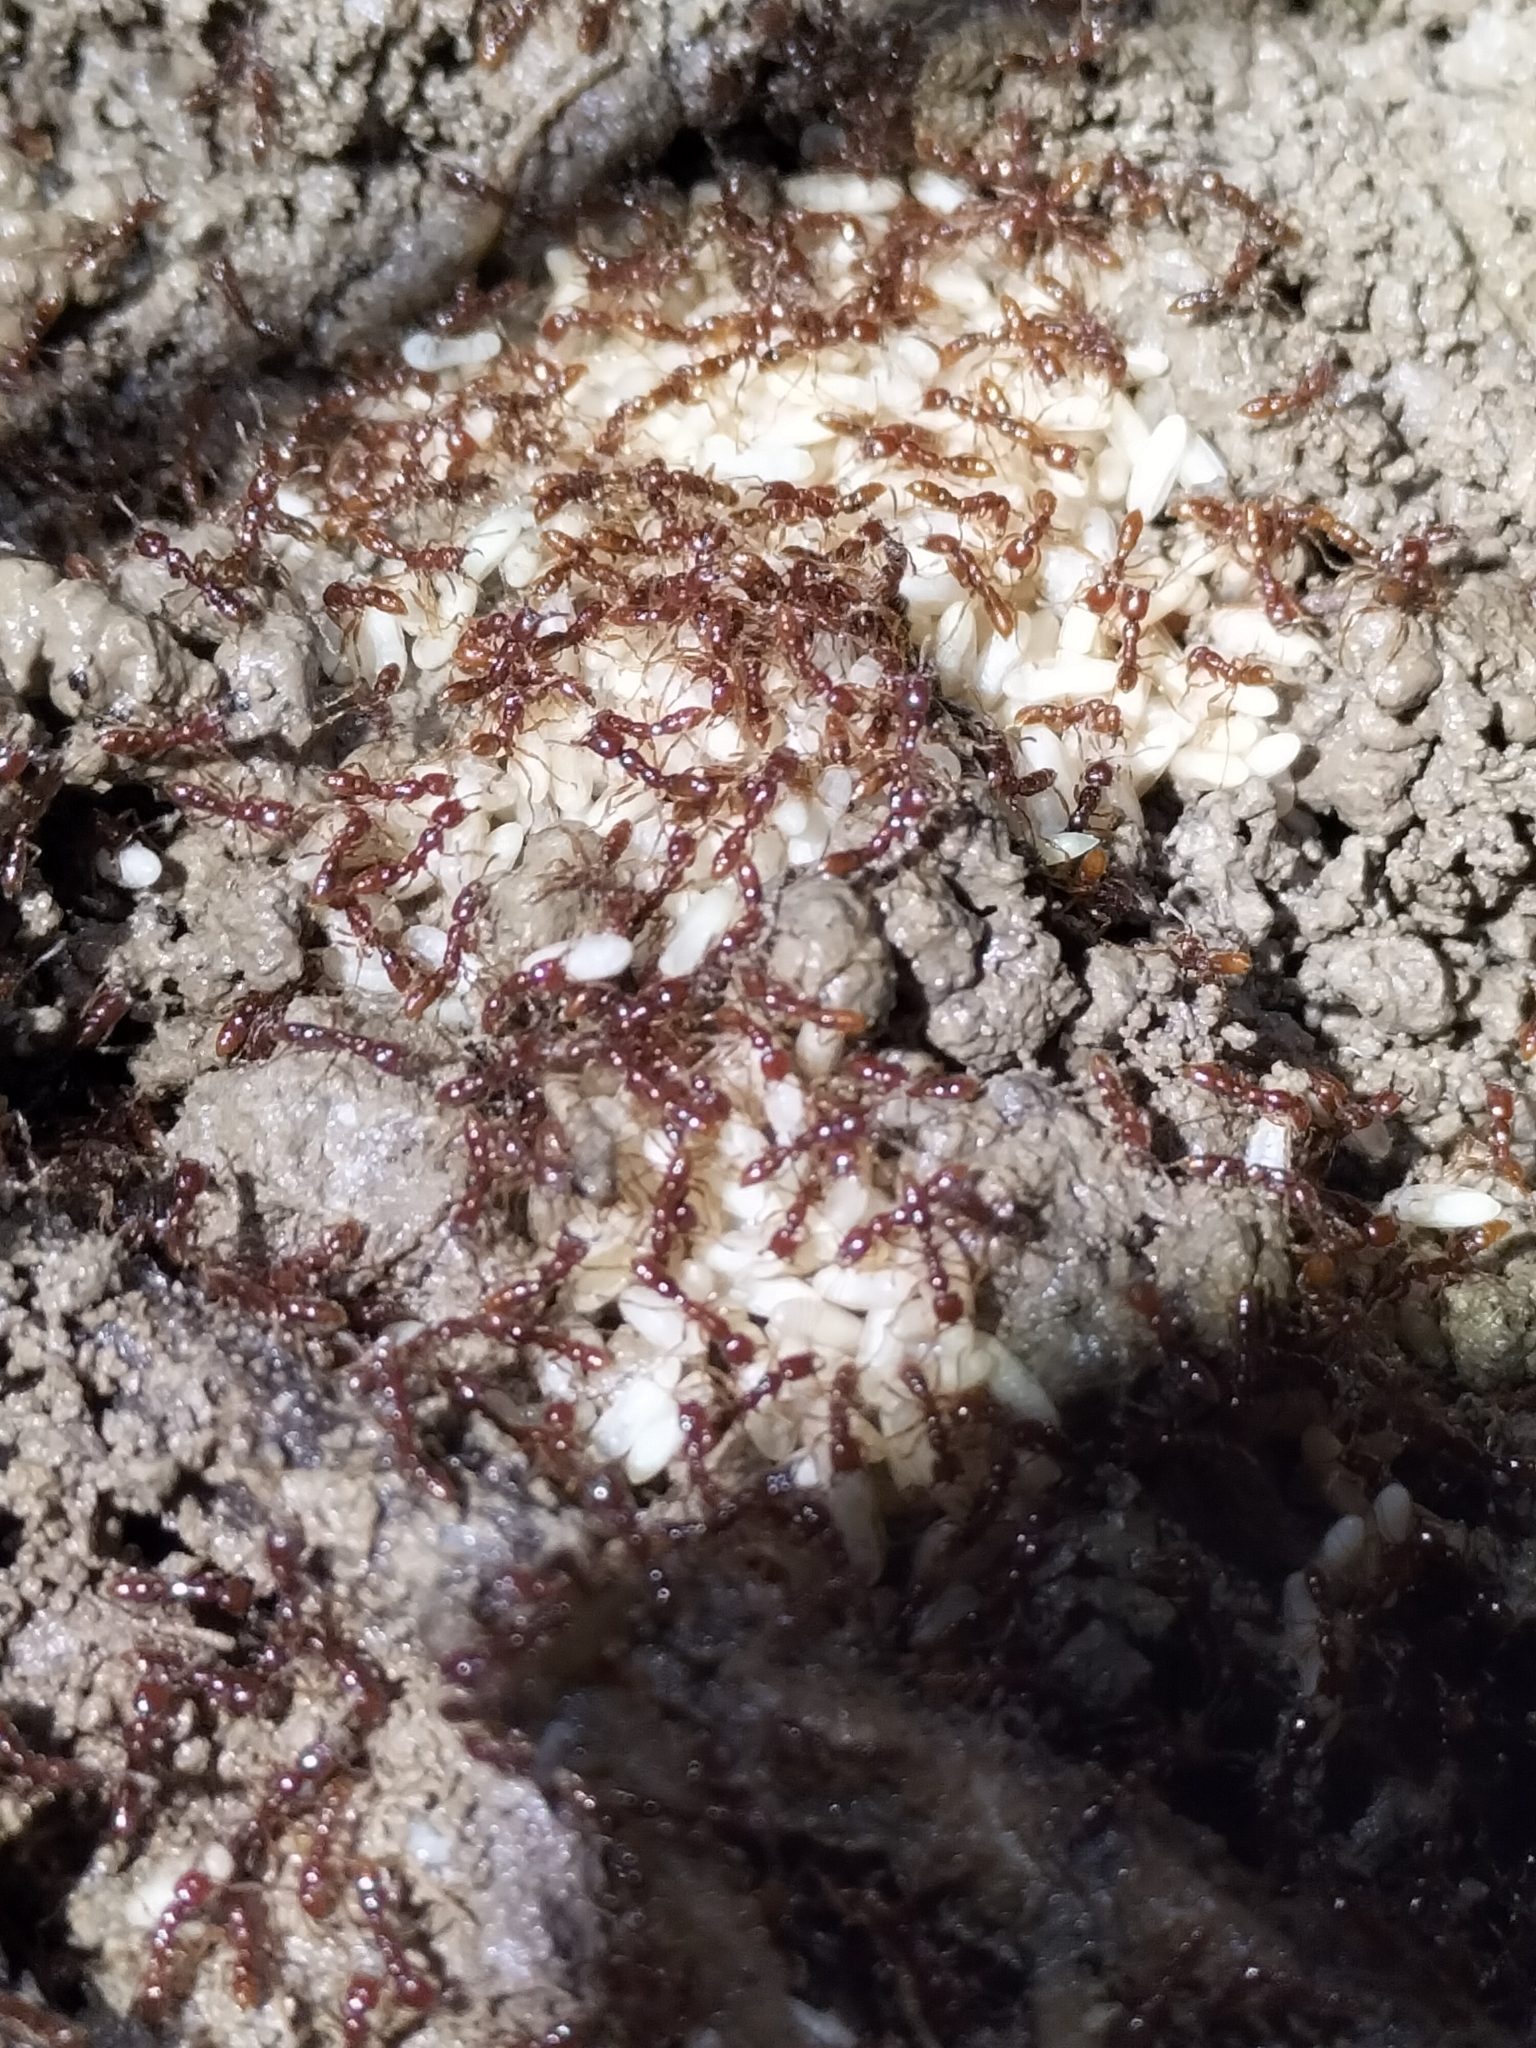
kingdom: Animalia
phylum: Arthropoda
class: Insecta
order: Hymenoptera
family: Formicidae
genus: Onychomyrmex
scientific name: Onychomyrmex mjobergi
